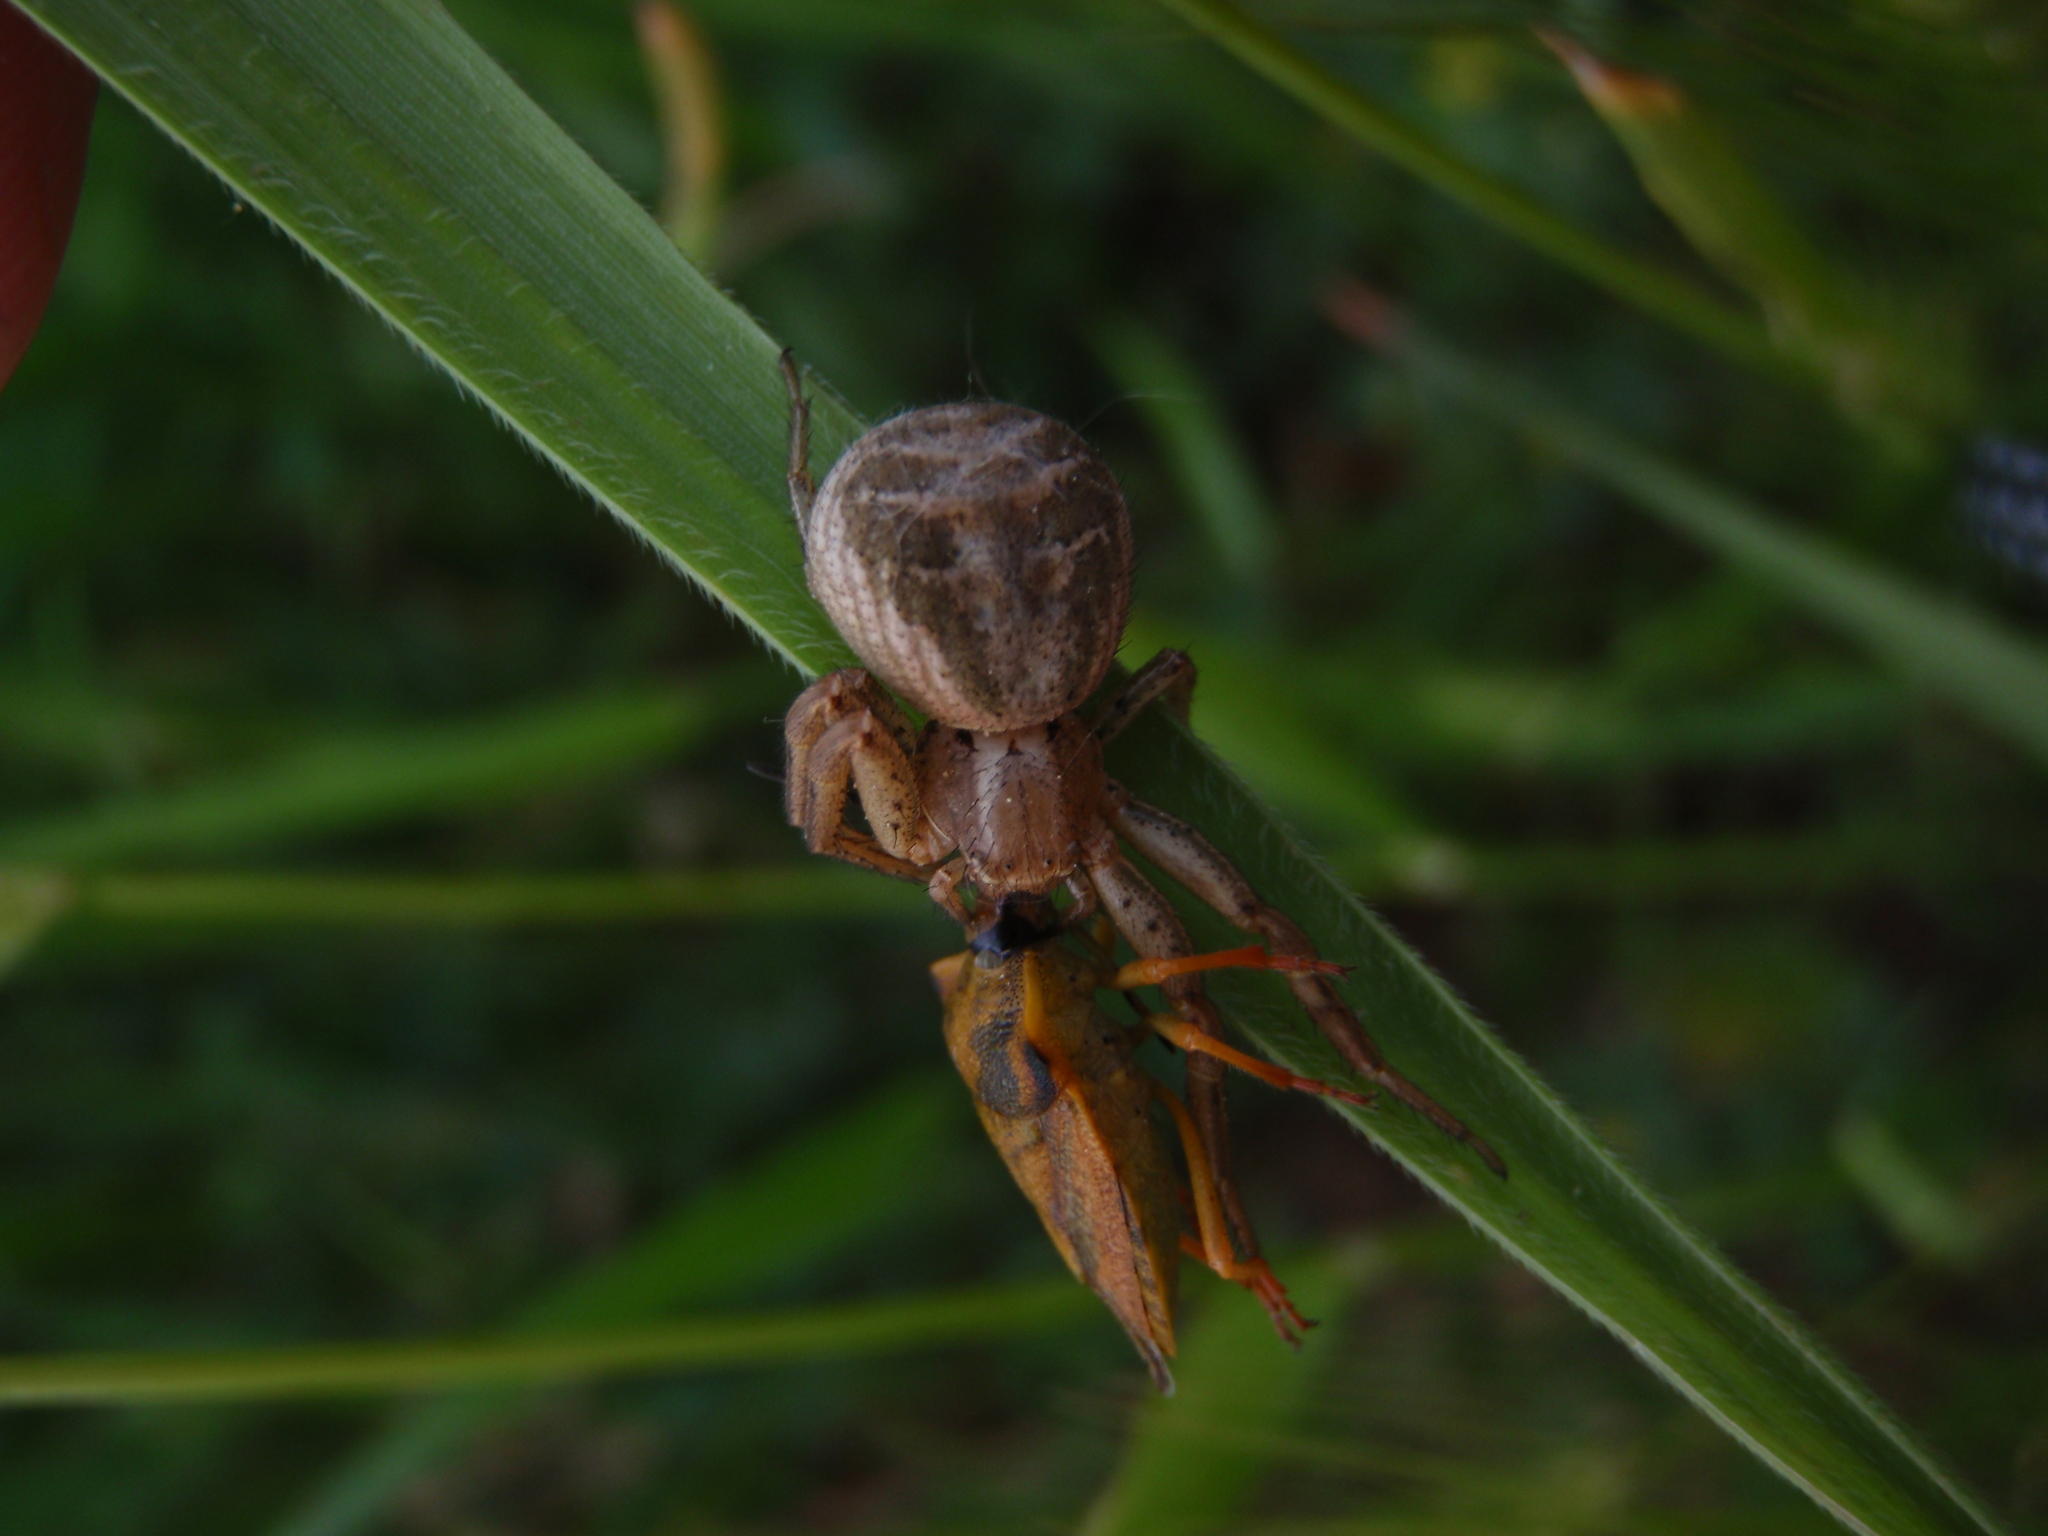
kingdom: Animalia
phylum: Arthropoda
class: Arachnida
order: Araneae
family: Thomisidae
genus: Xysticus
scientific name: Xysticus
